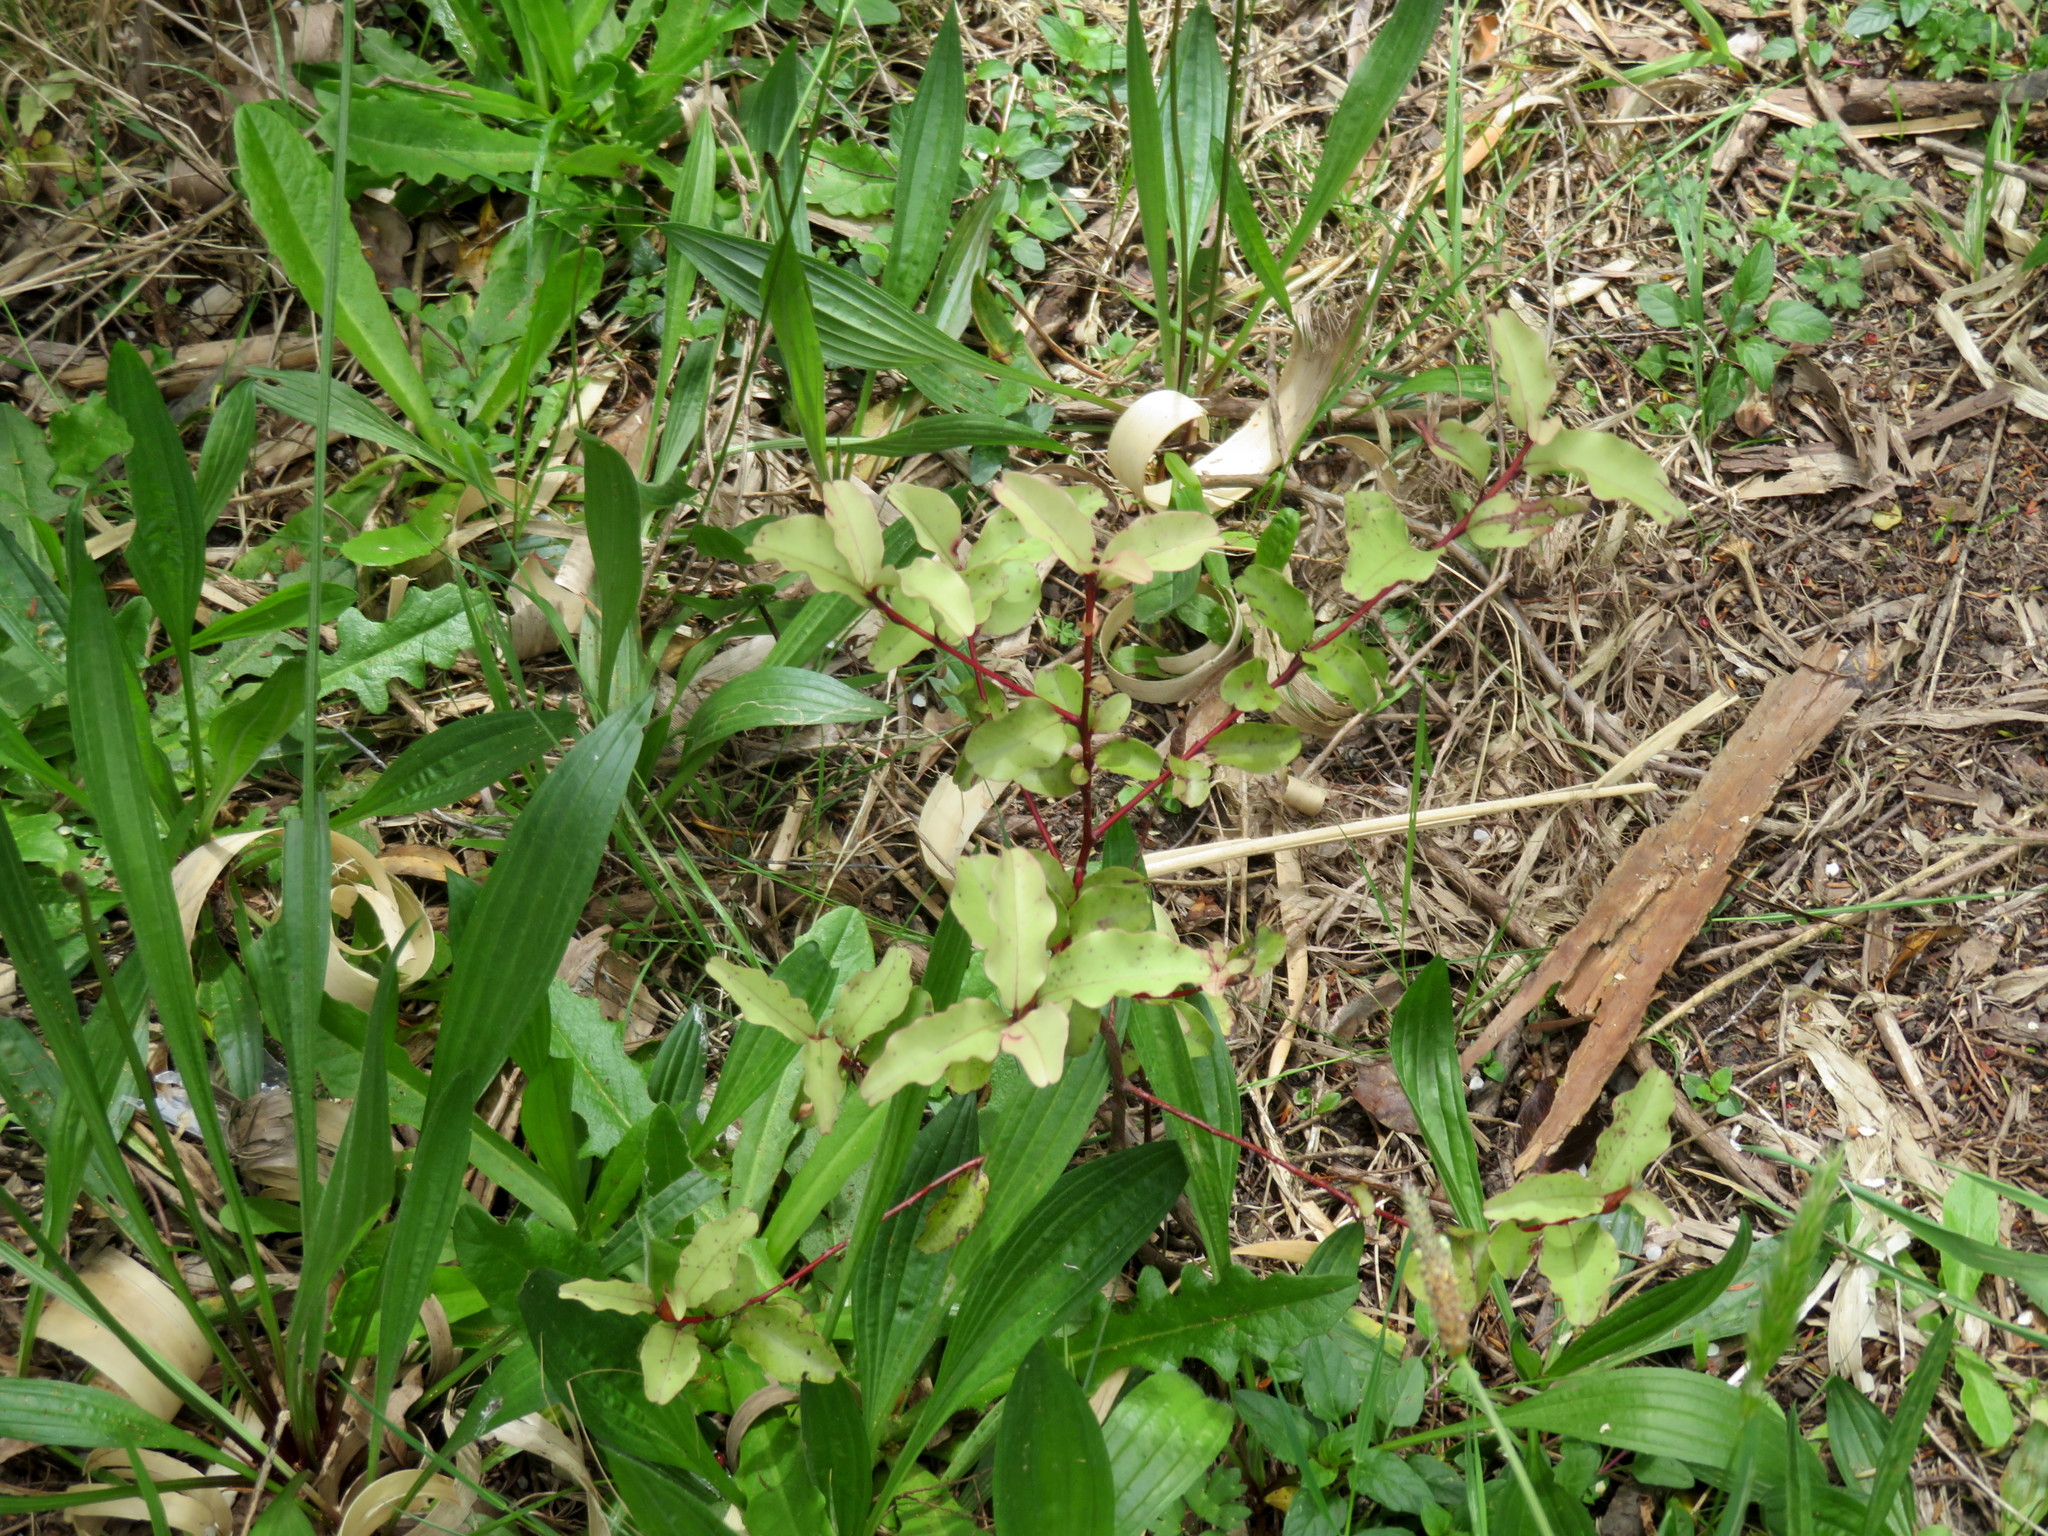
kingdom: Plantae
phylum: Tracheophyta
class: Magnoliopsida
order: Ericales
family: Primulaceae
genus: Myrsine
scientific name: Myrsine australis
